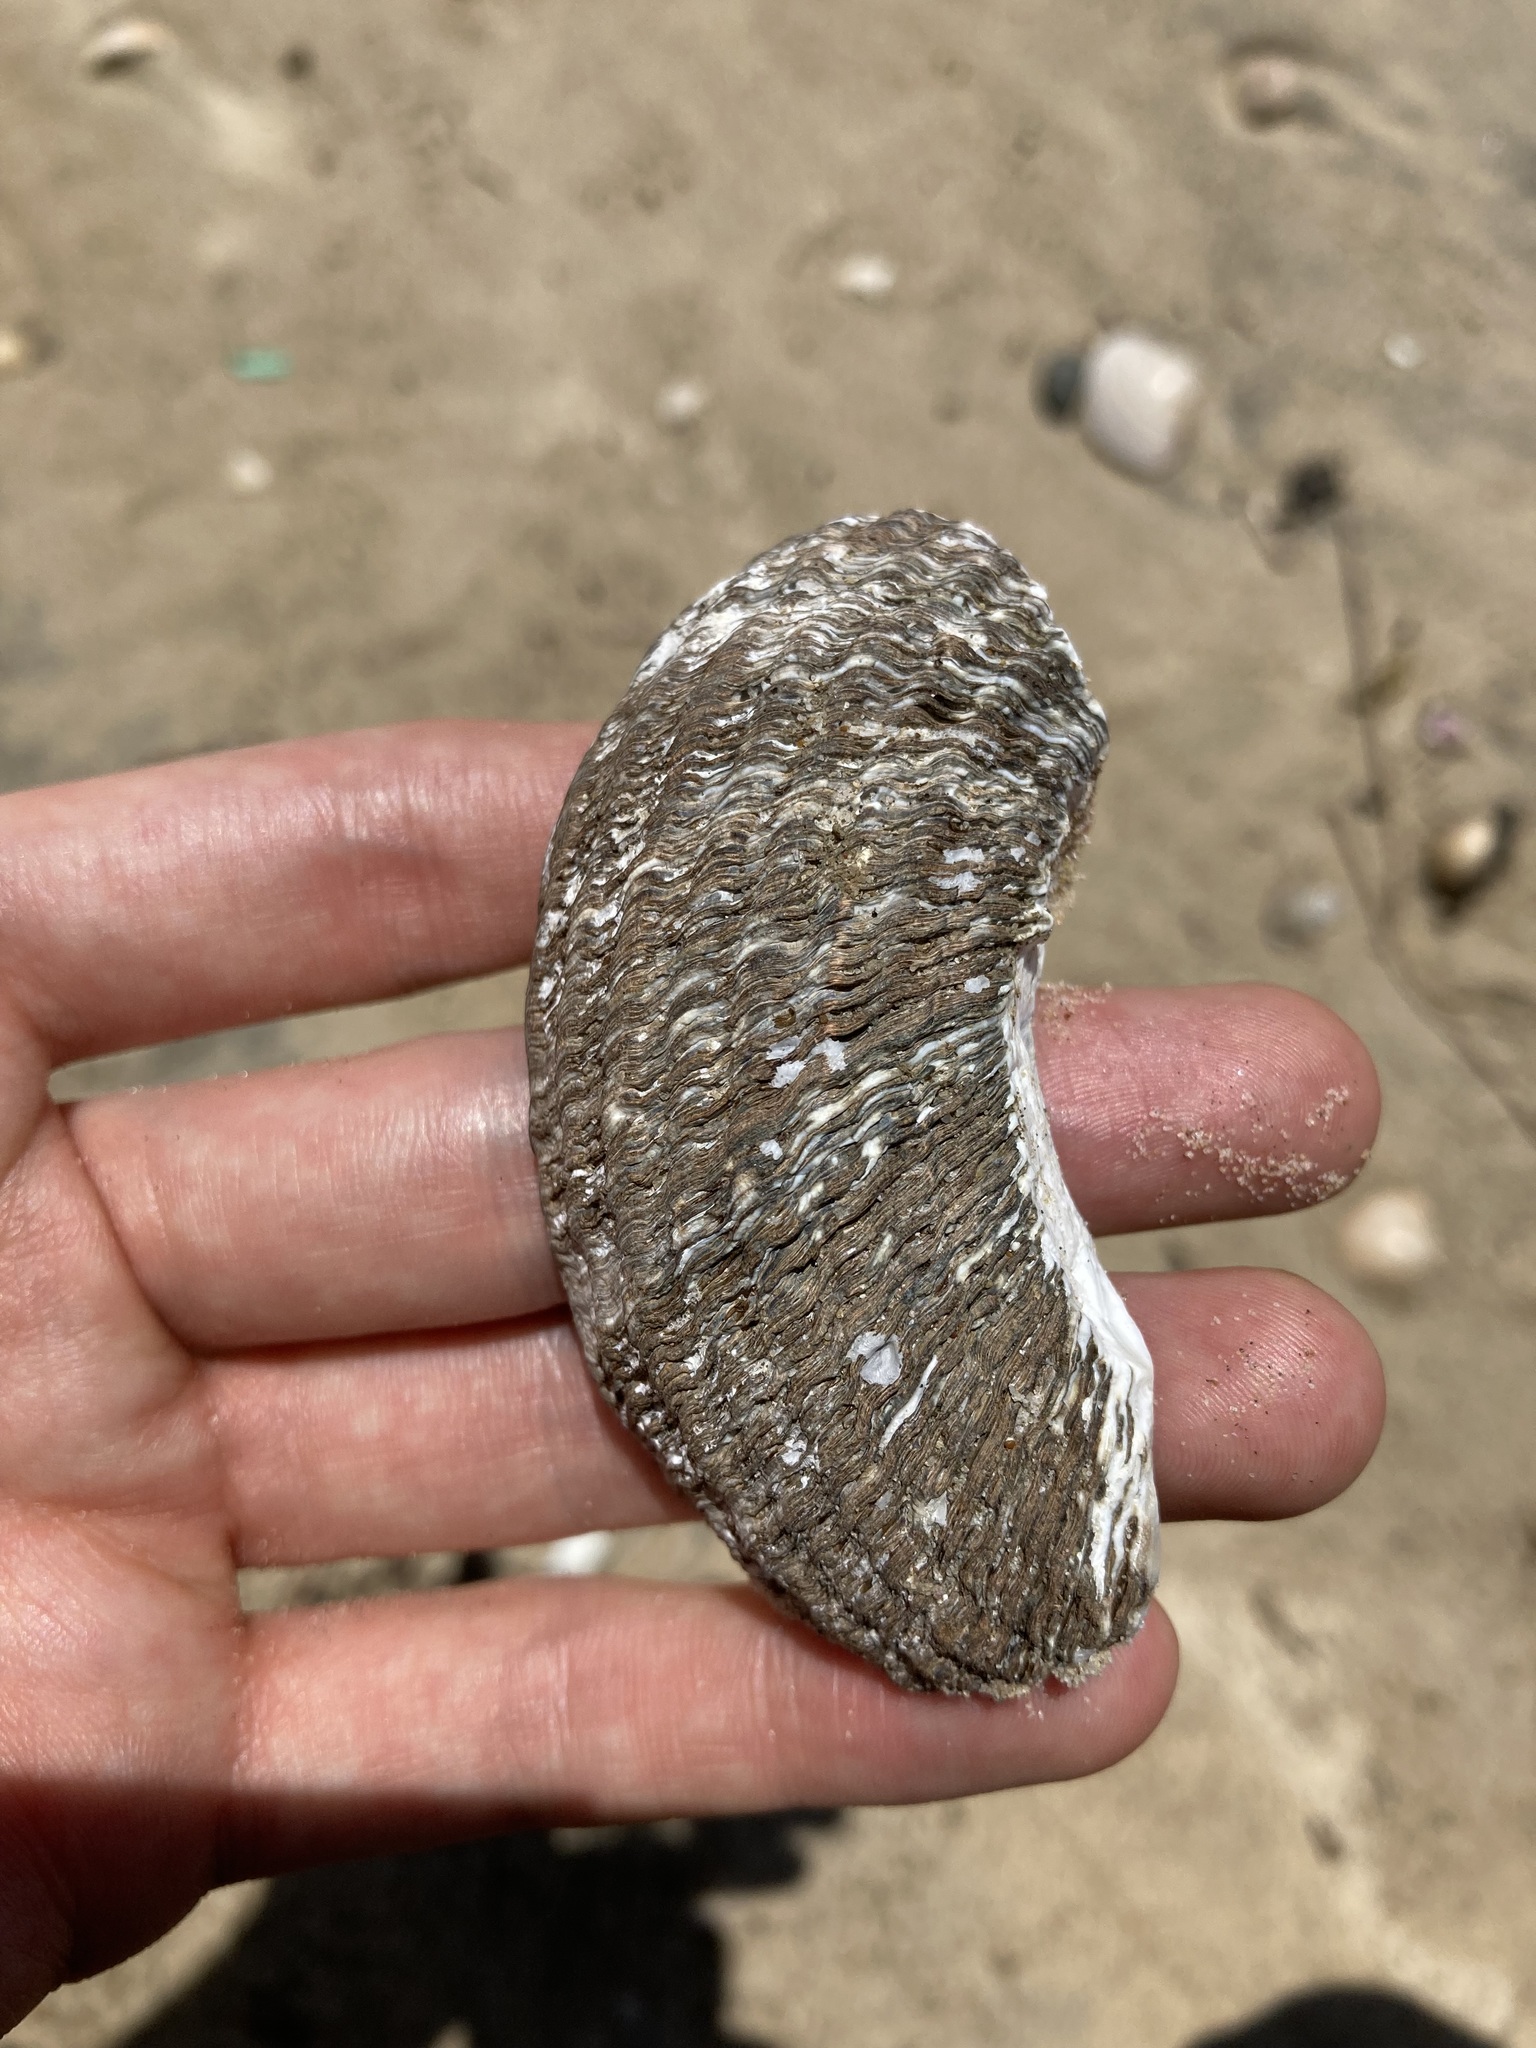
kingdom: Animalia
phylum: Mollusca
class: Gastropoda
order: Trochida
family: Turbinidae
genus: Lunella
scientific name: Lunella torquata
